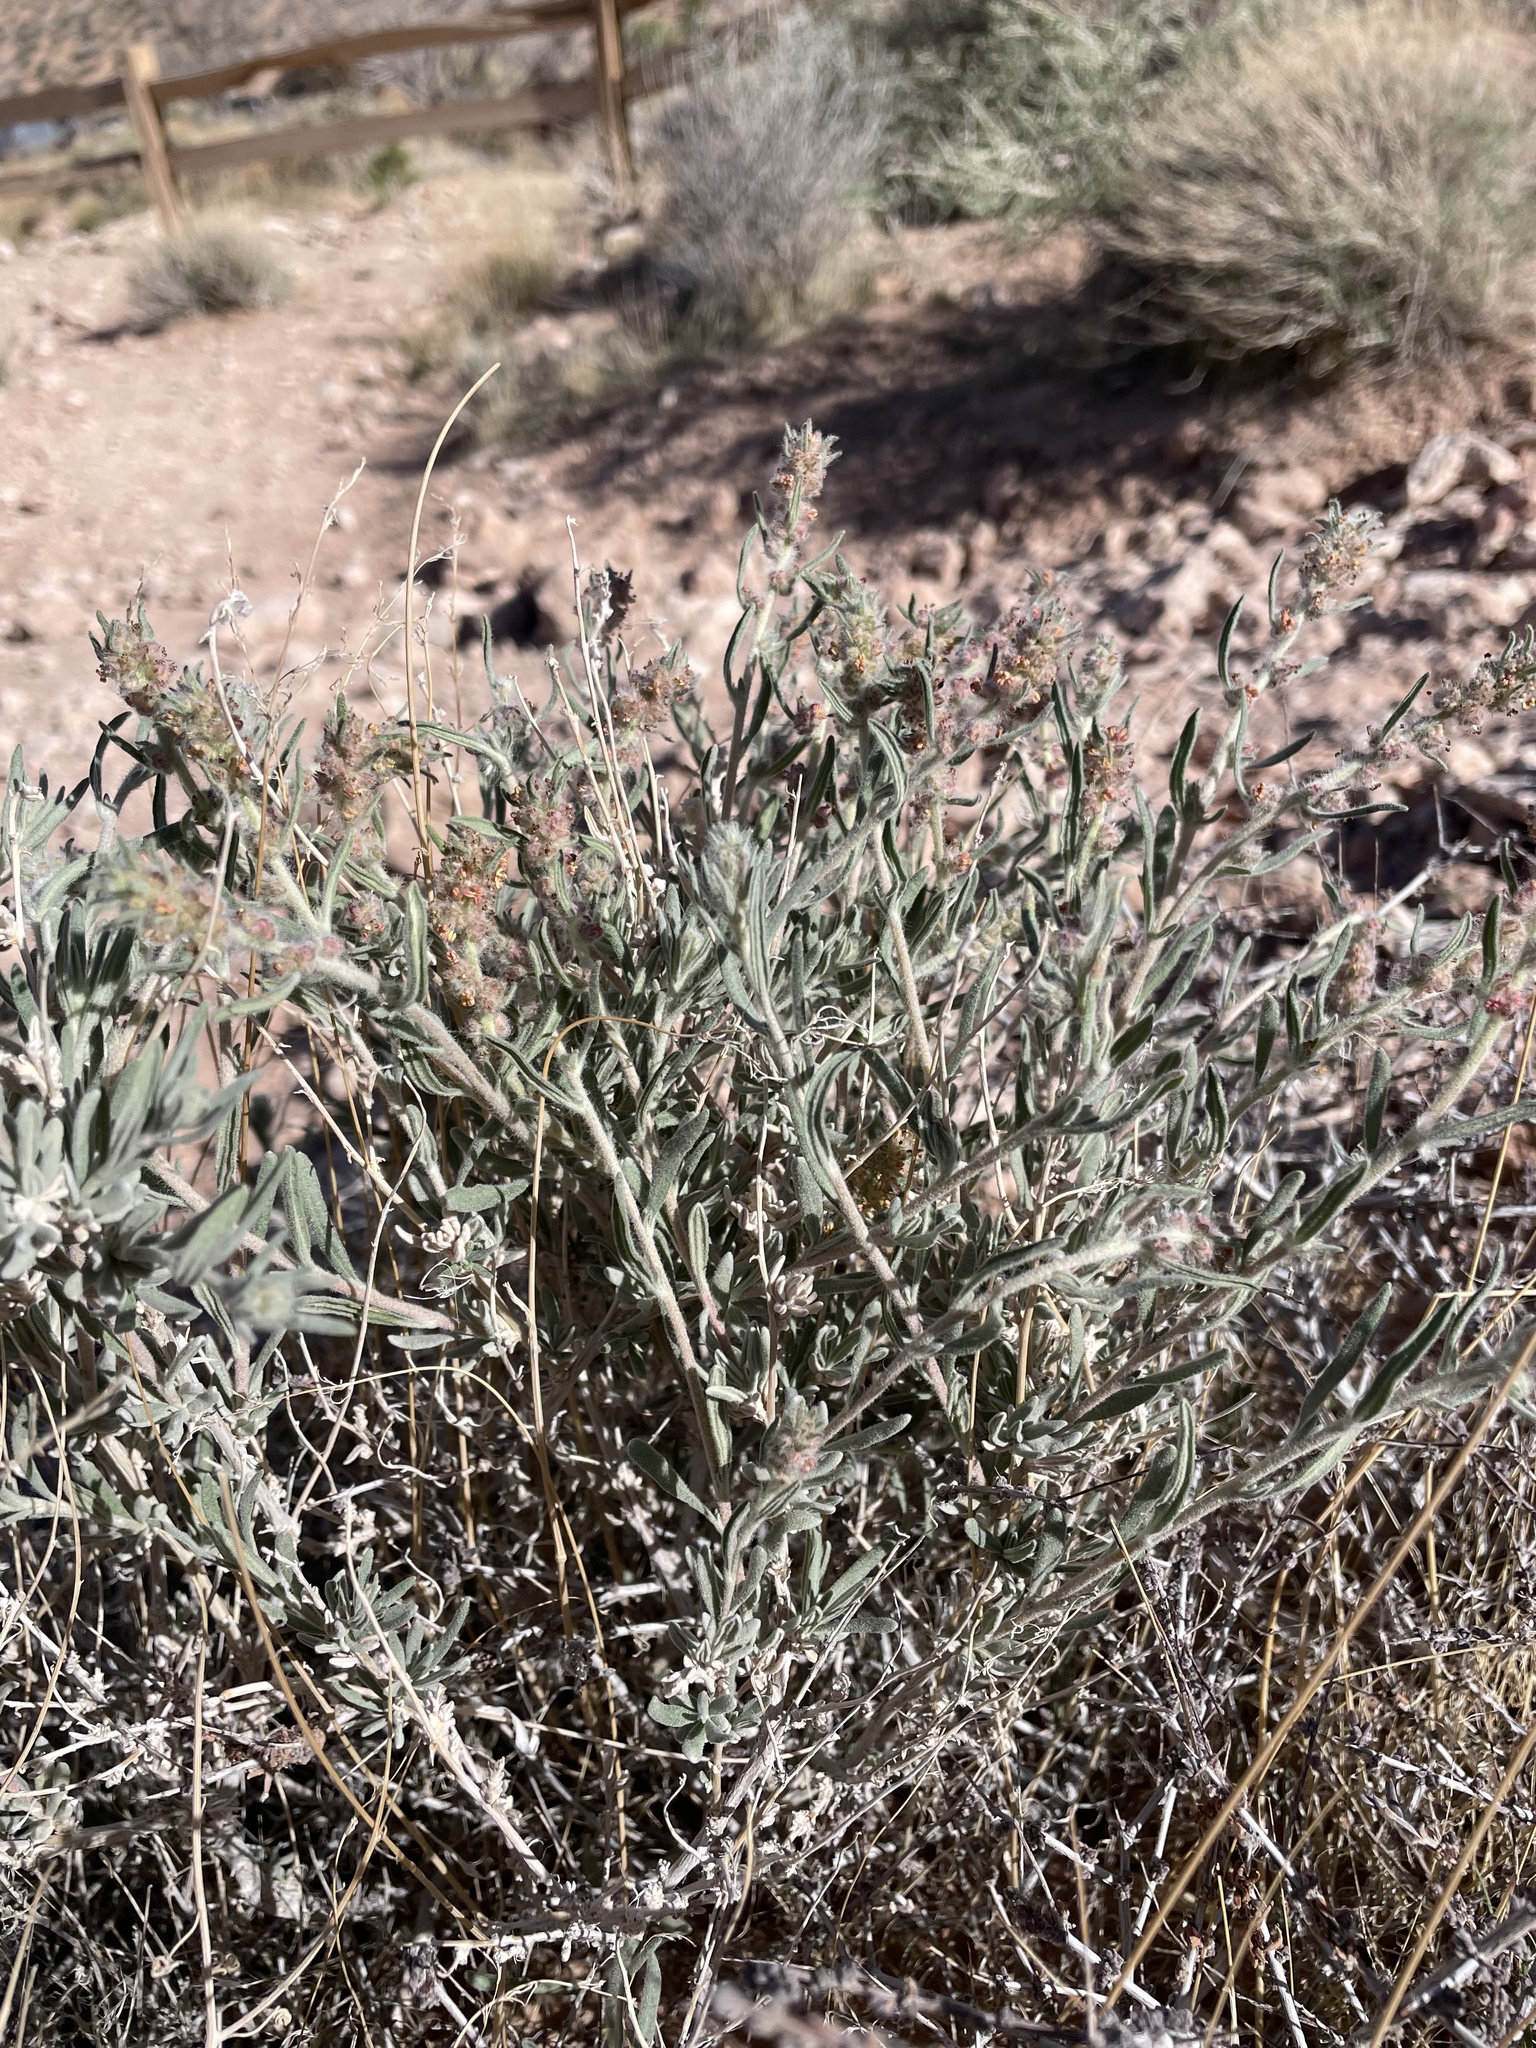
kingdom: Plantae
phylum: Tracheophyta
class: Magnoliopsida
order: Caryophyllales
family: Amaranthaceae
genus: Krascheninnikovia
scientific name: Krascheninnikovia lanata
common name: Winterfat
